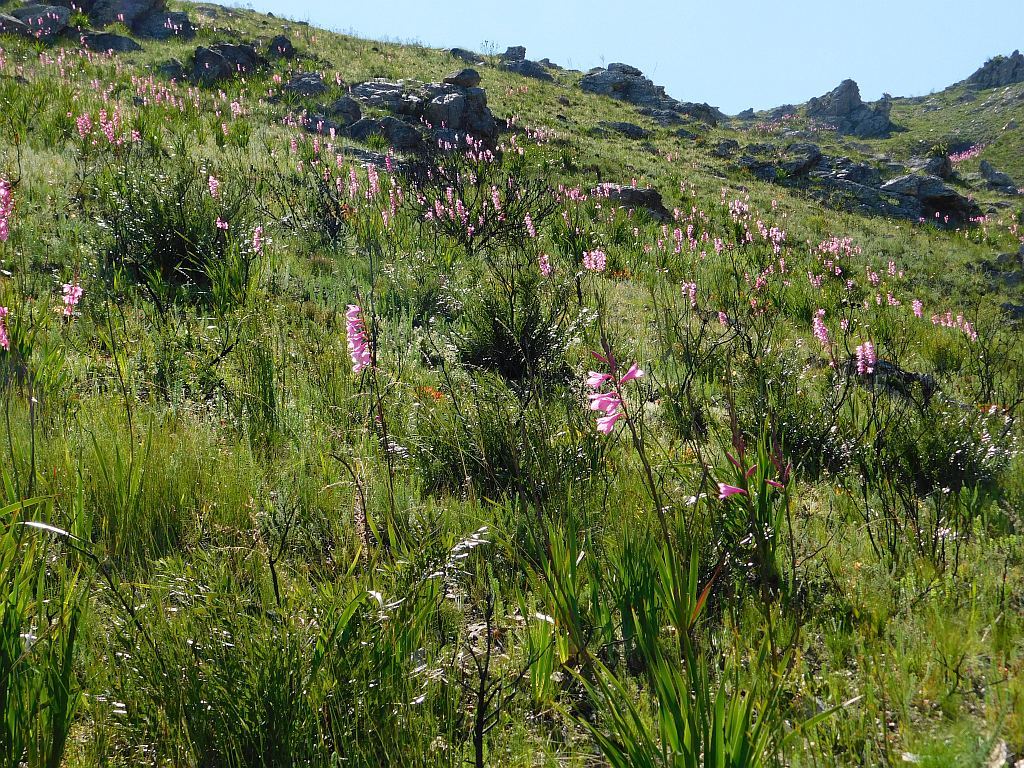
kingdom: Plantae
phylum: Tracheophyta
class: Liliopsida
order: Asparagales
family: Iridaceae
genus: Watsonia
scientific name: Watsonia borbonica
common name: Bugle-lily
